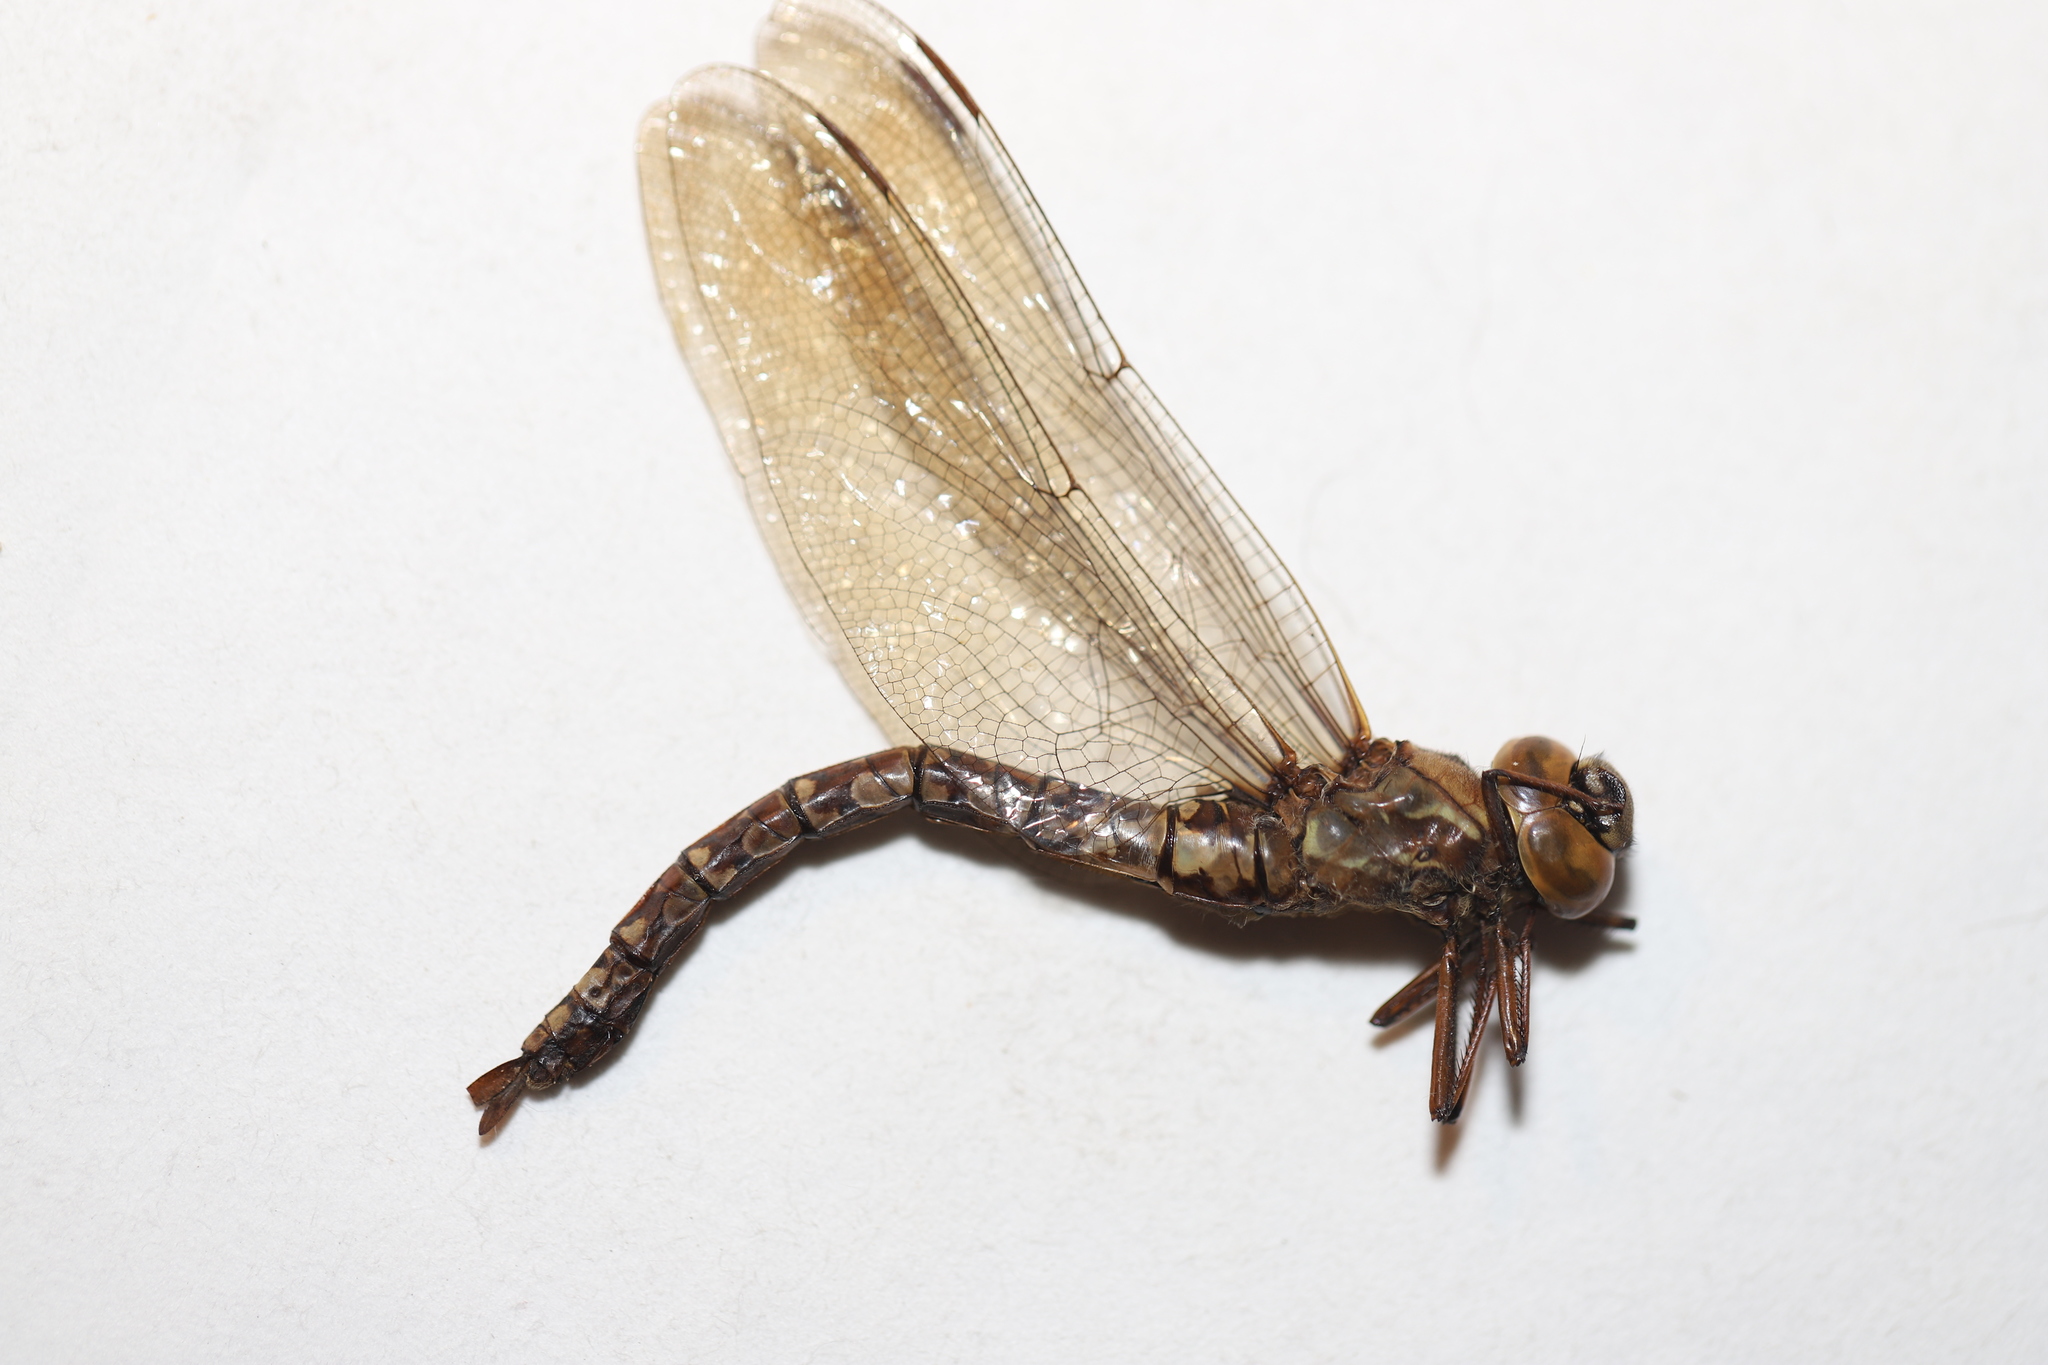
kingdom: Animalia
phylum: Arthropoda
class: Insecta
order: Odonata
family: Aeshnidae
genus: Aeshna
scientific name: Aeshna sitchensis
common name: Zigzag darner
